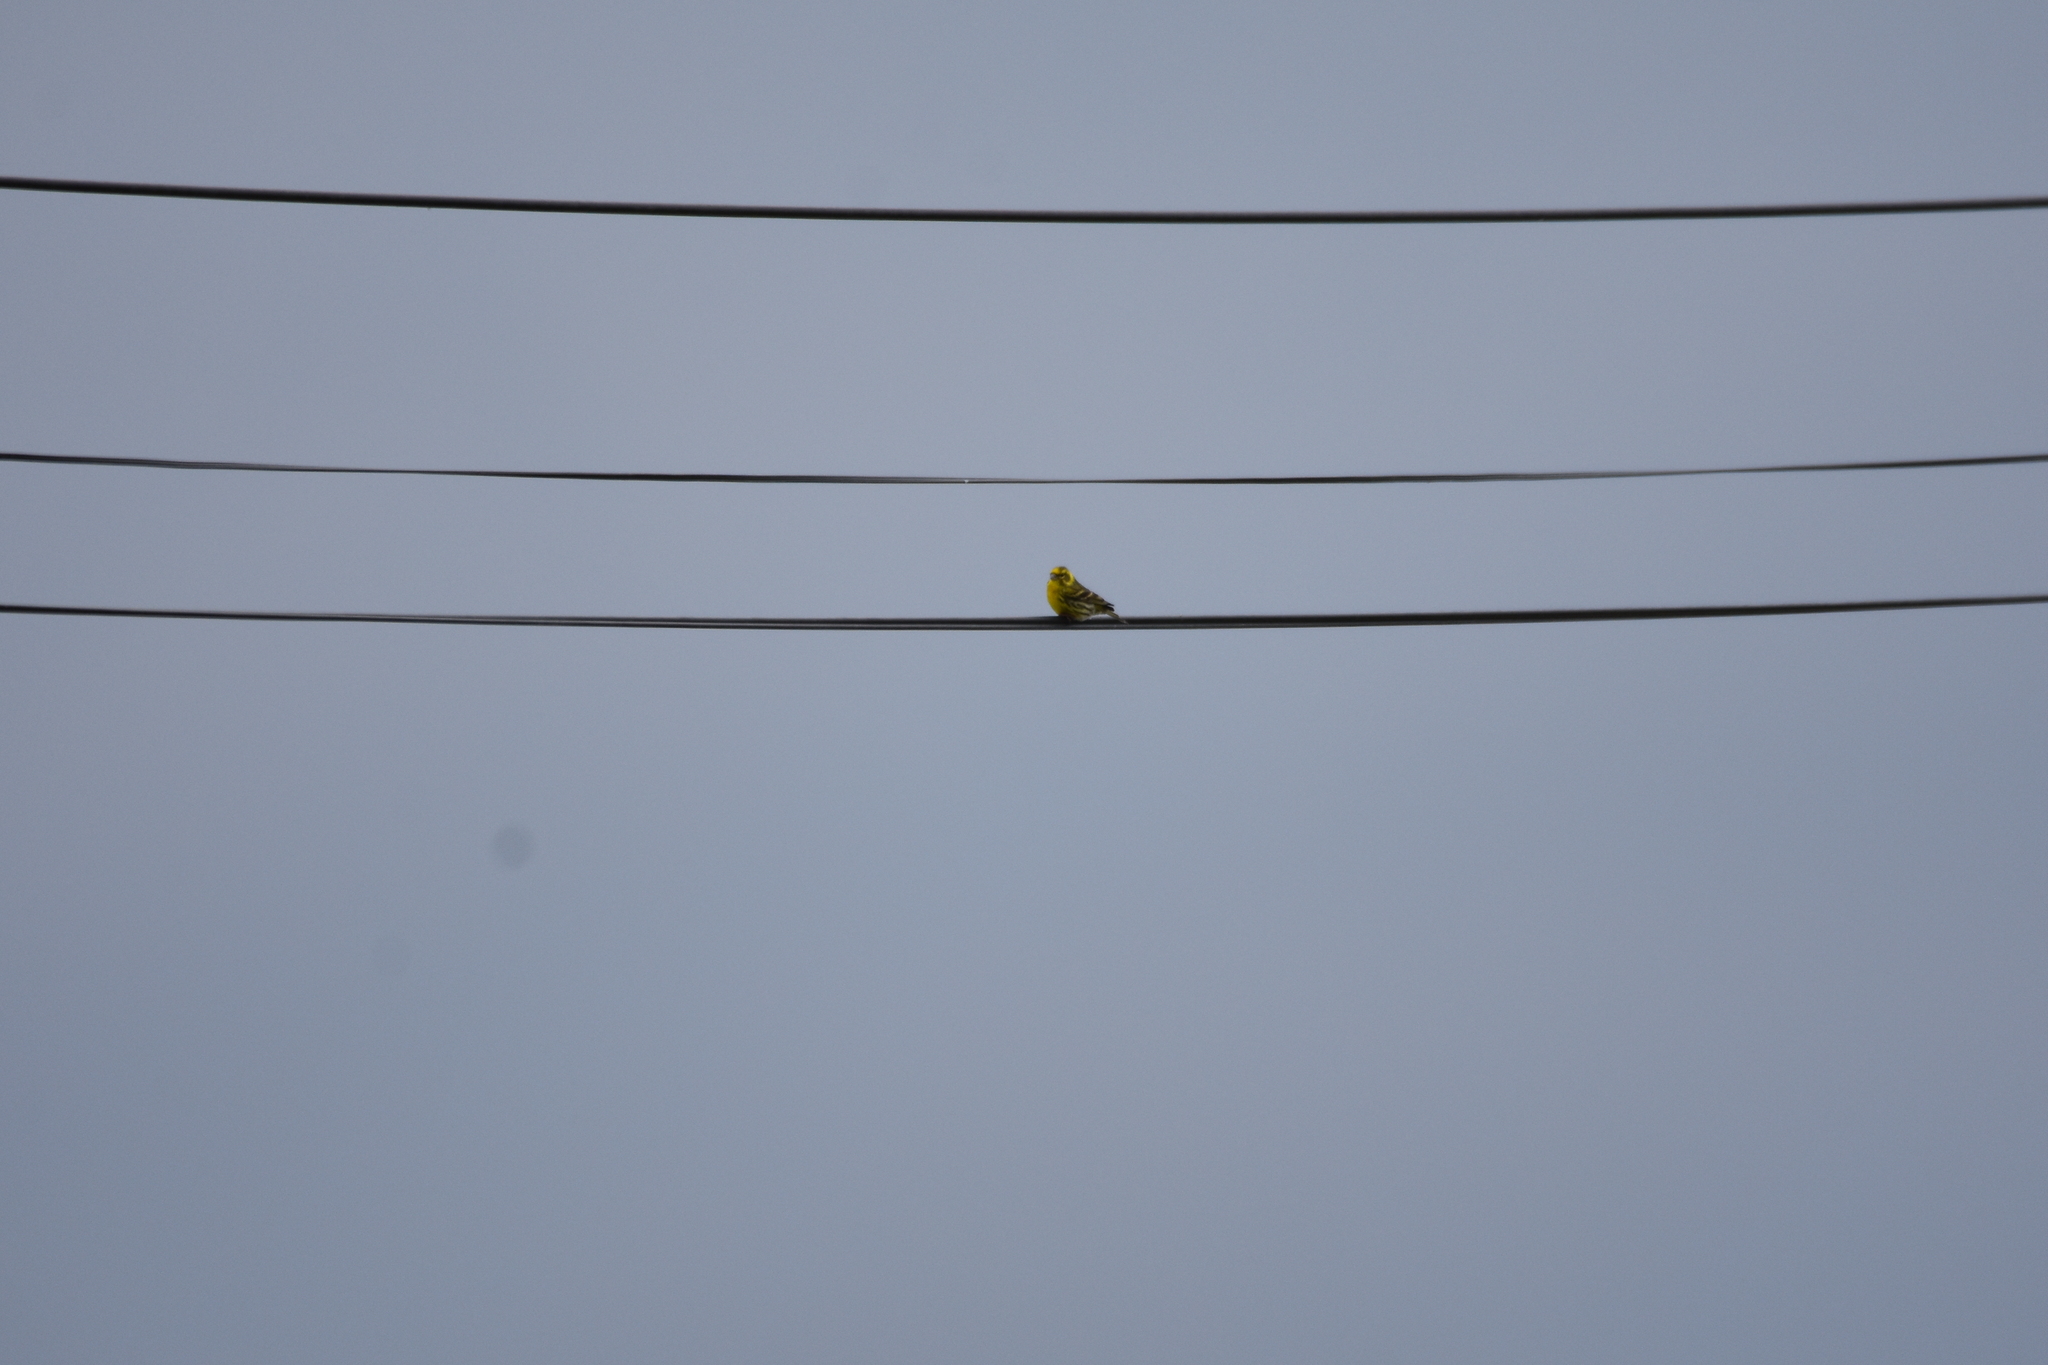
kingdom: Animalia
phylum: Chordata
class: Aves
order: Passeriformes
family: Fringillidae
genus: Serinus
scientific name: Serinus serinus
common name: European serin
